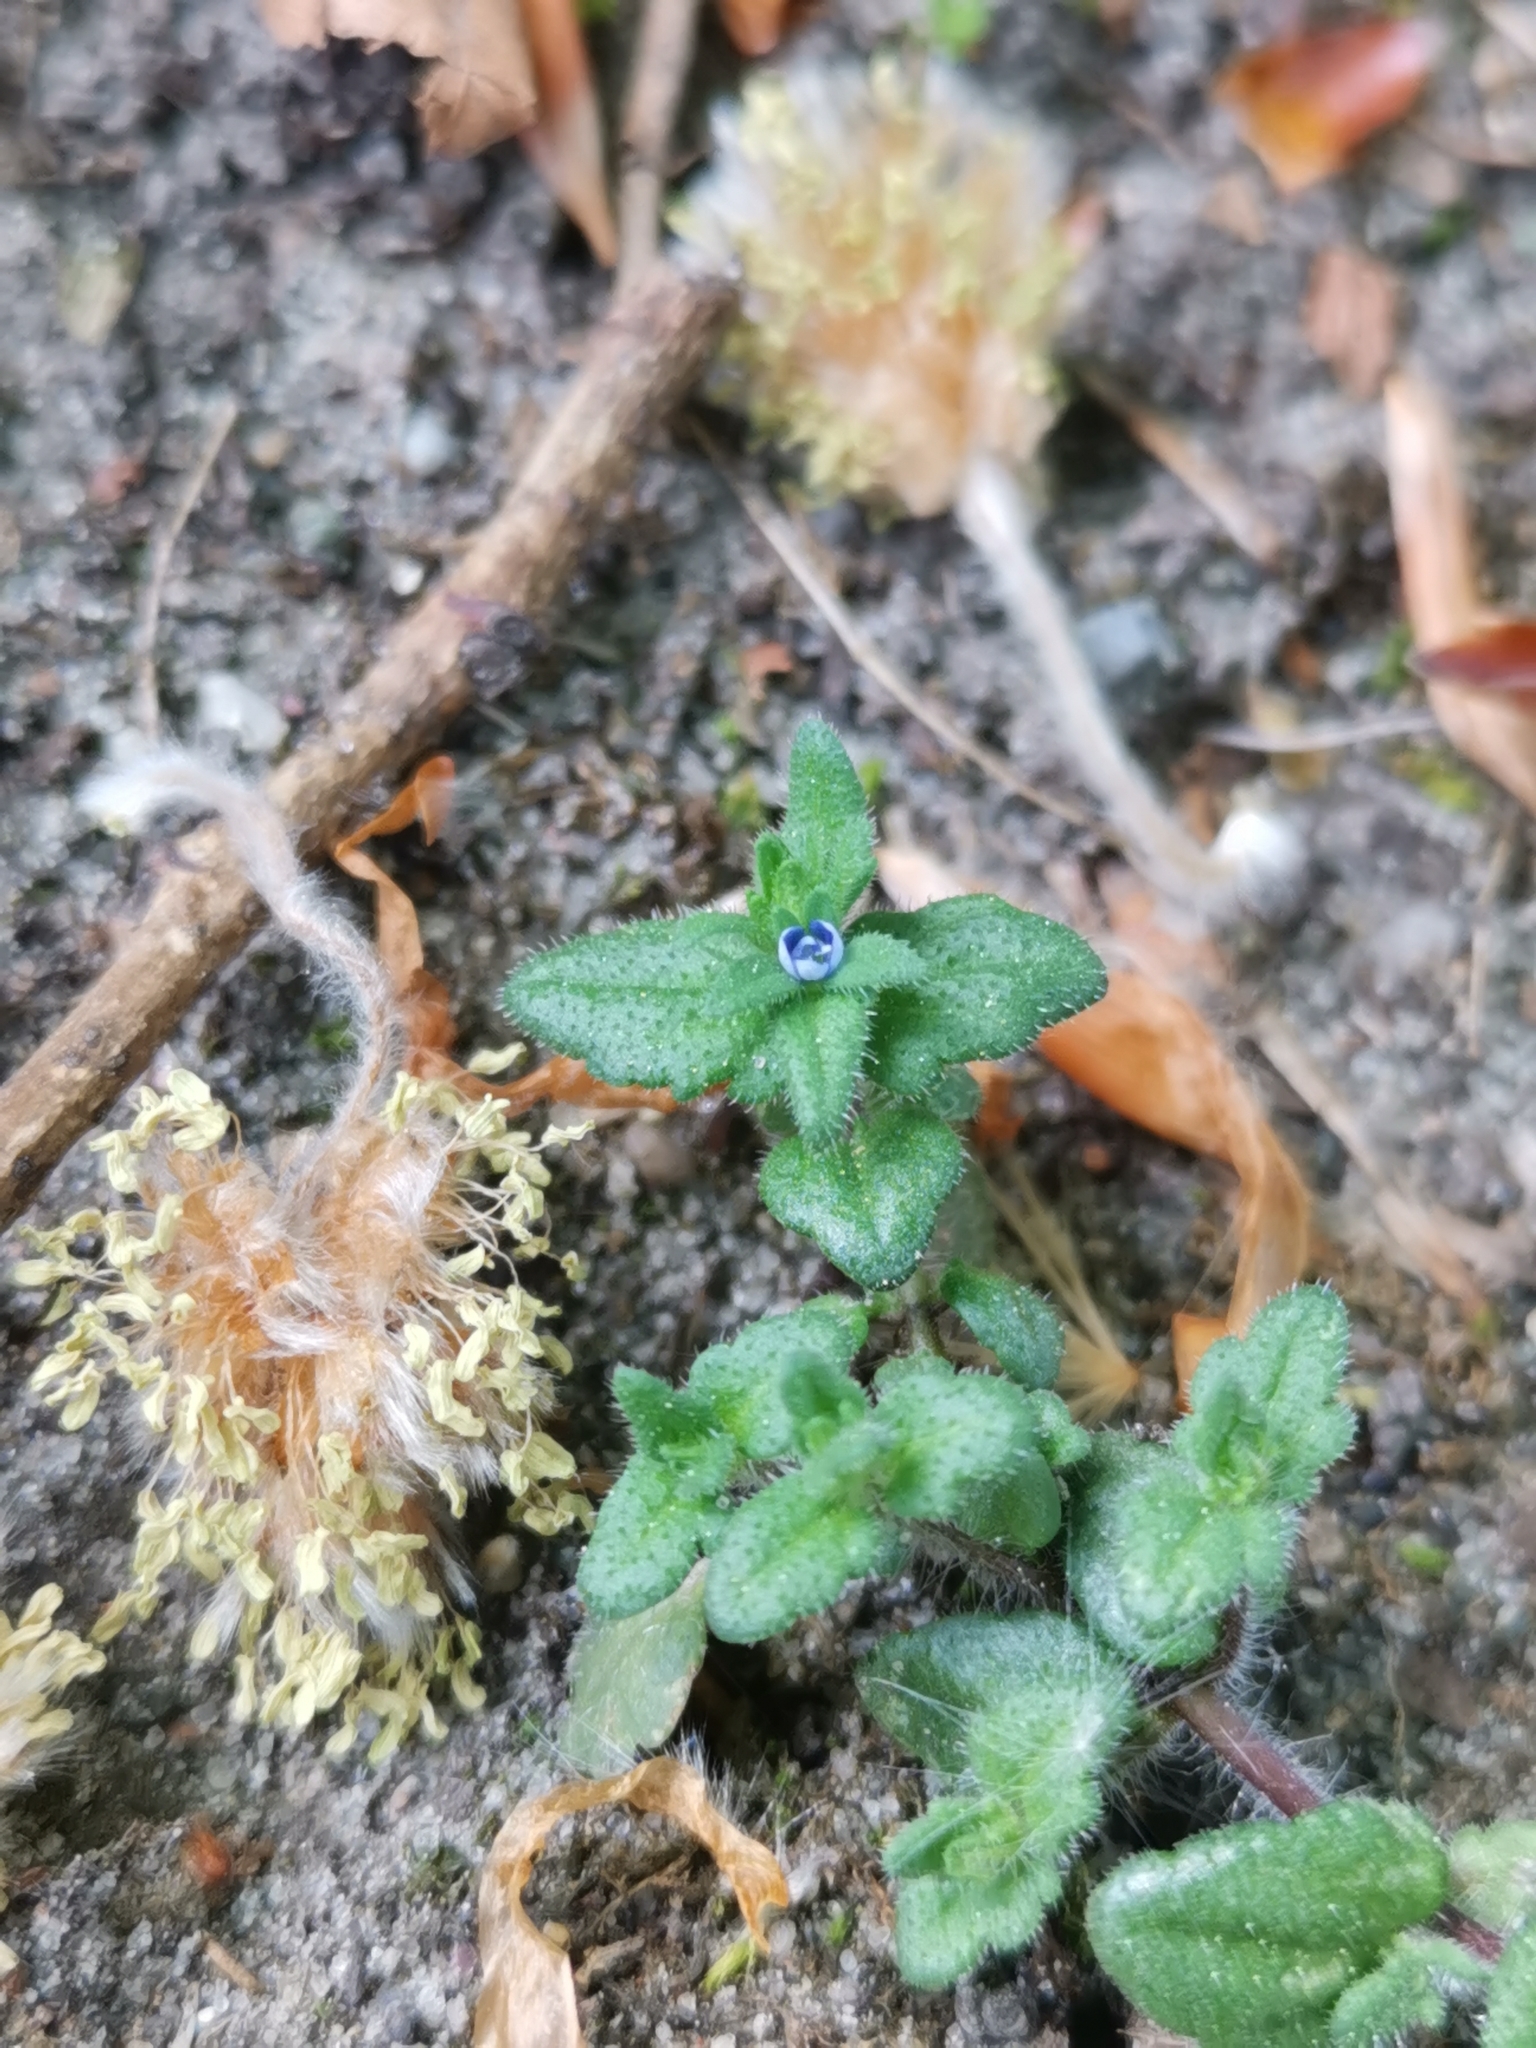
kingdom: Plantae
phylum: Tracheophyta
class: Magnoliopsida
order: Lamiales
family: Plantaginaceae
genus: Veronica
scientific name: Veronica arvensis
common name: Corn speedwell
